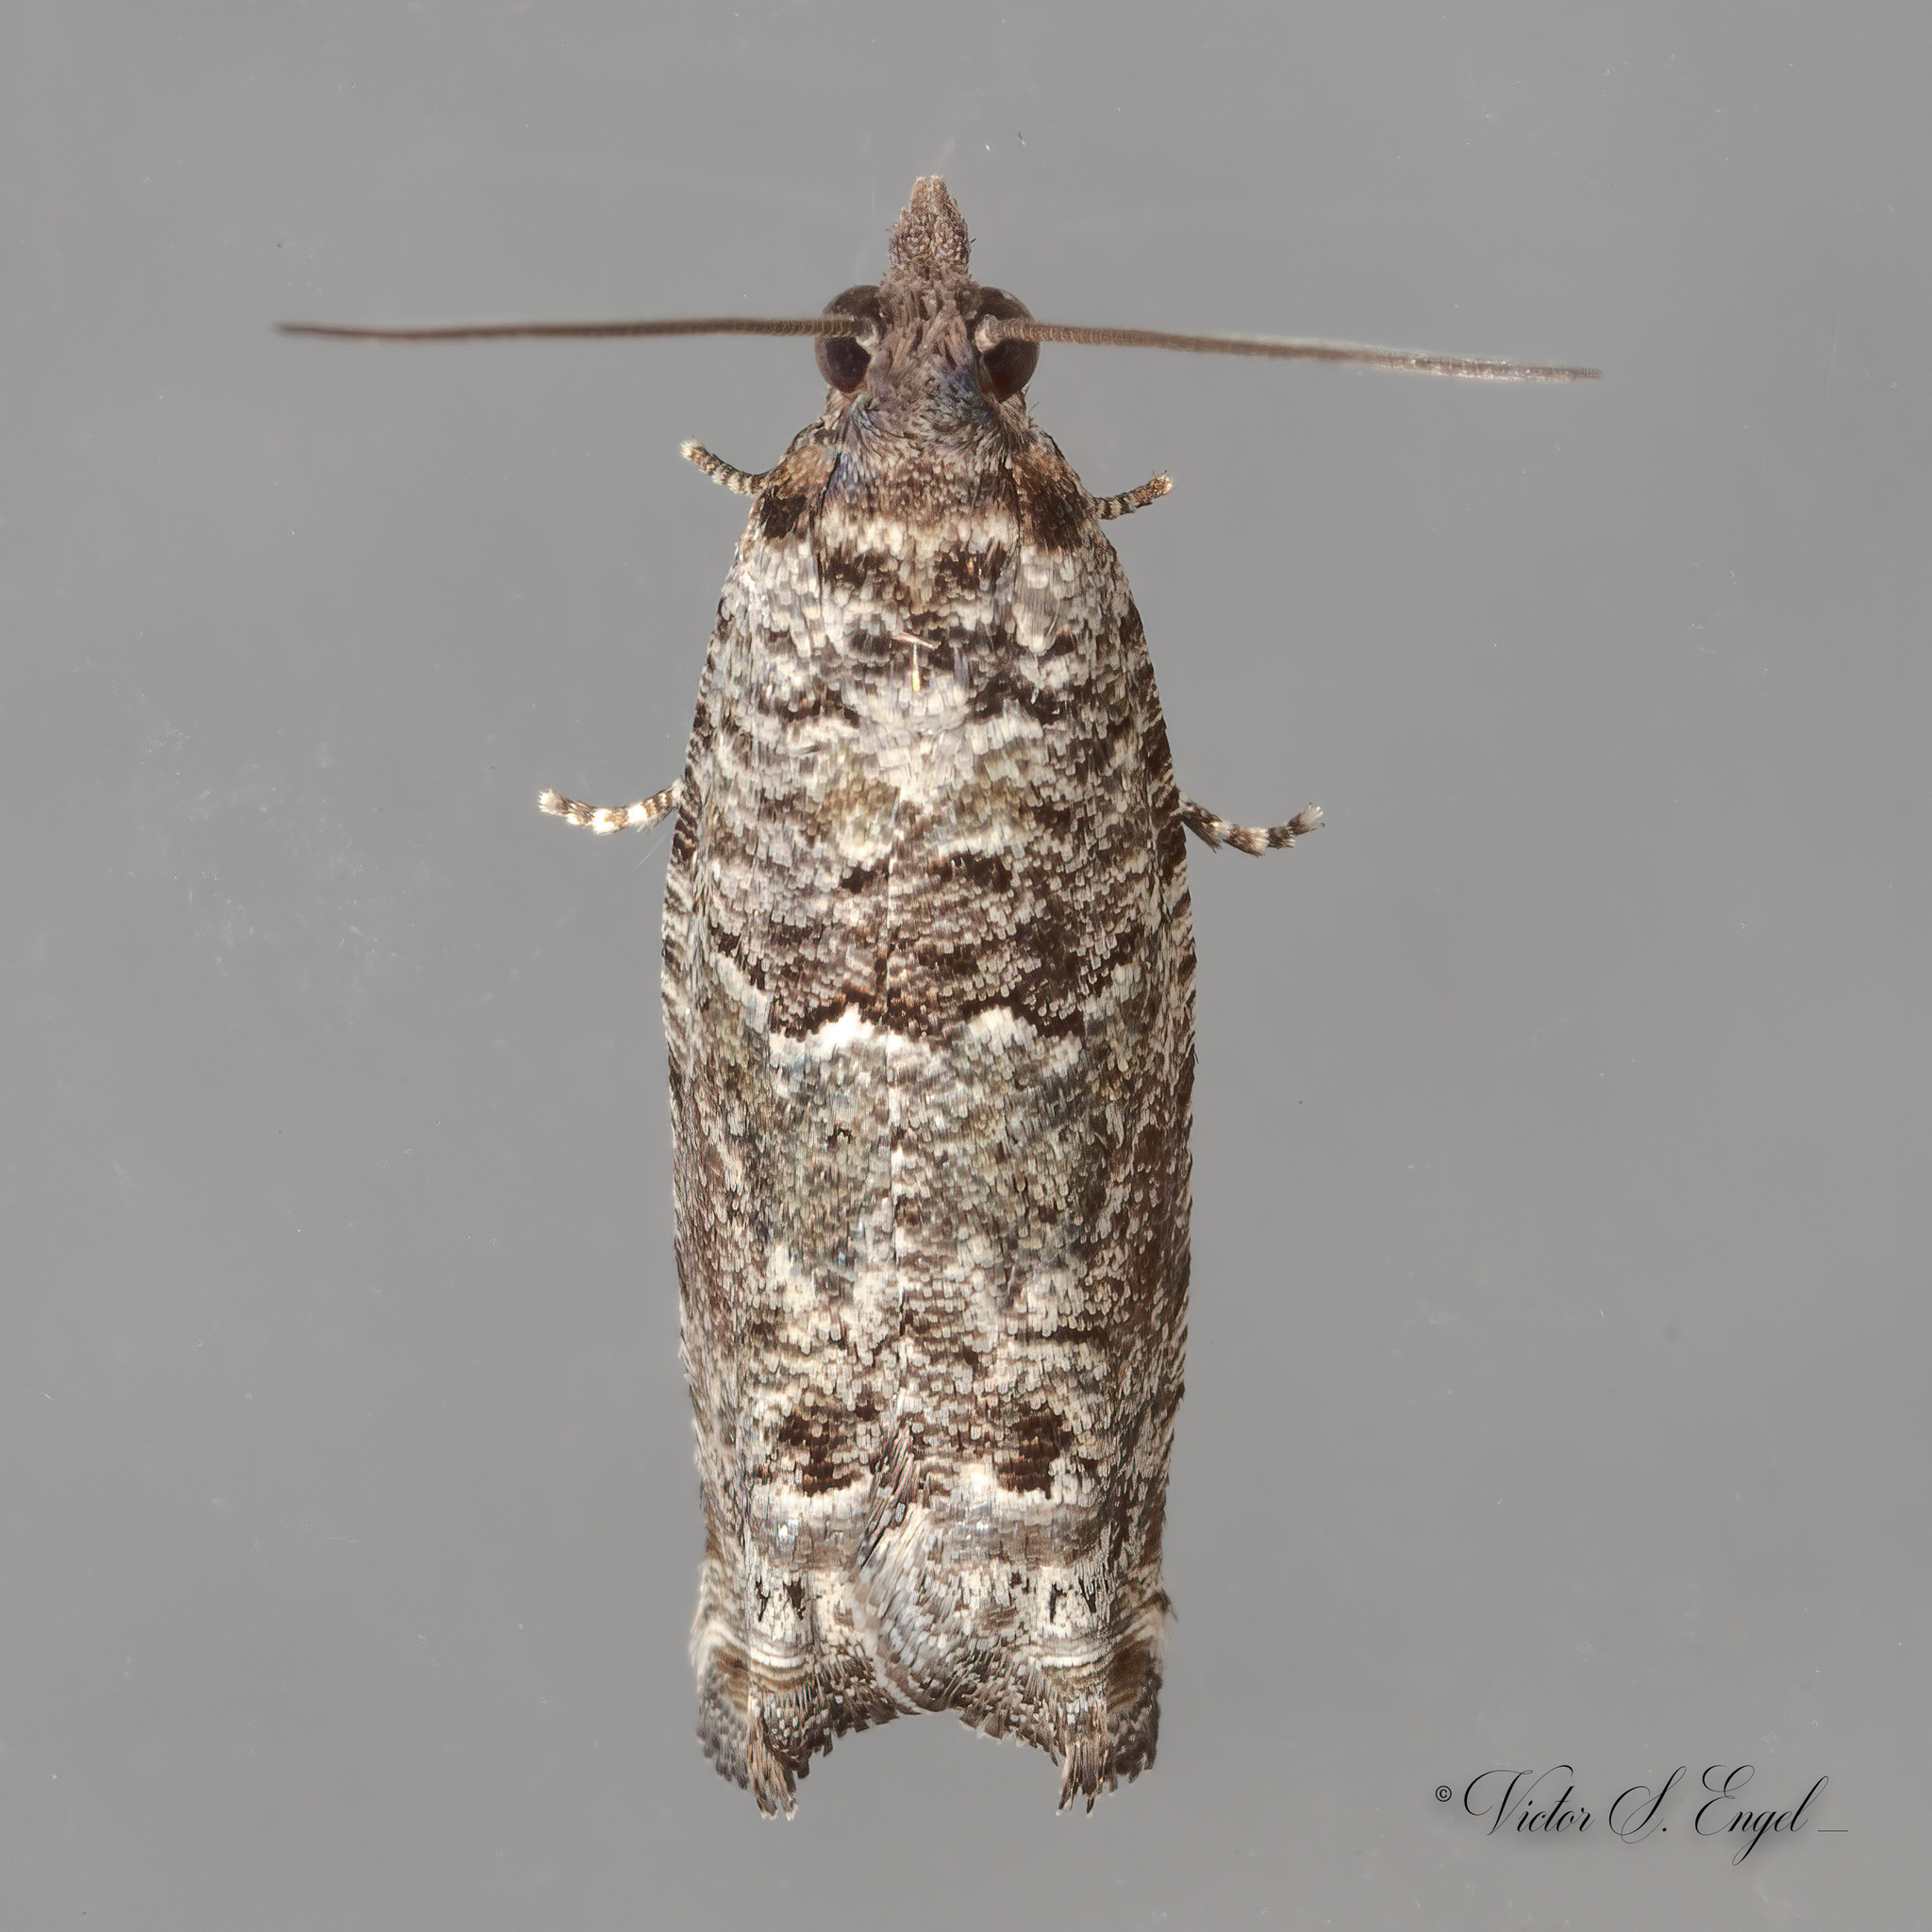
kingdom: Animalia
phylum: Arthropoda
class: Insecta
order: Lepidoptera
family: Tortricidae
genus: Pseudexentera
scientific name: Pseudexentera knudsoni
